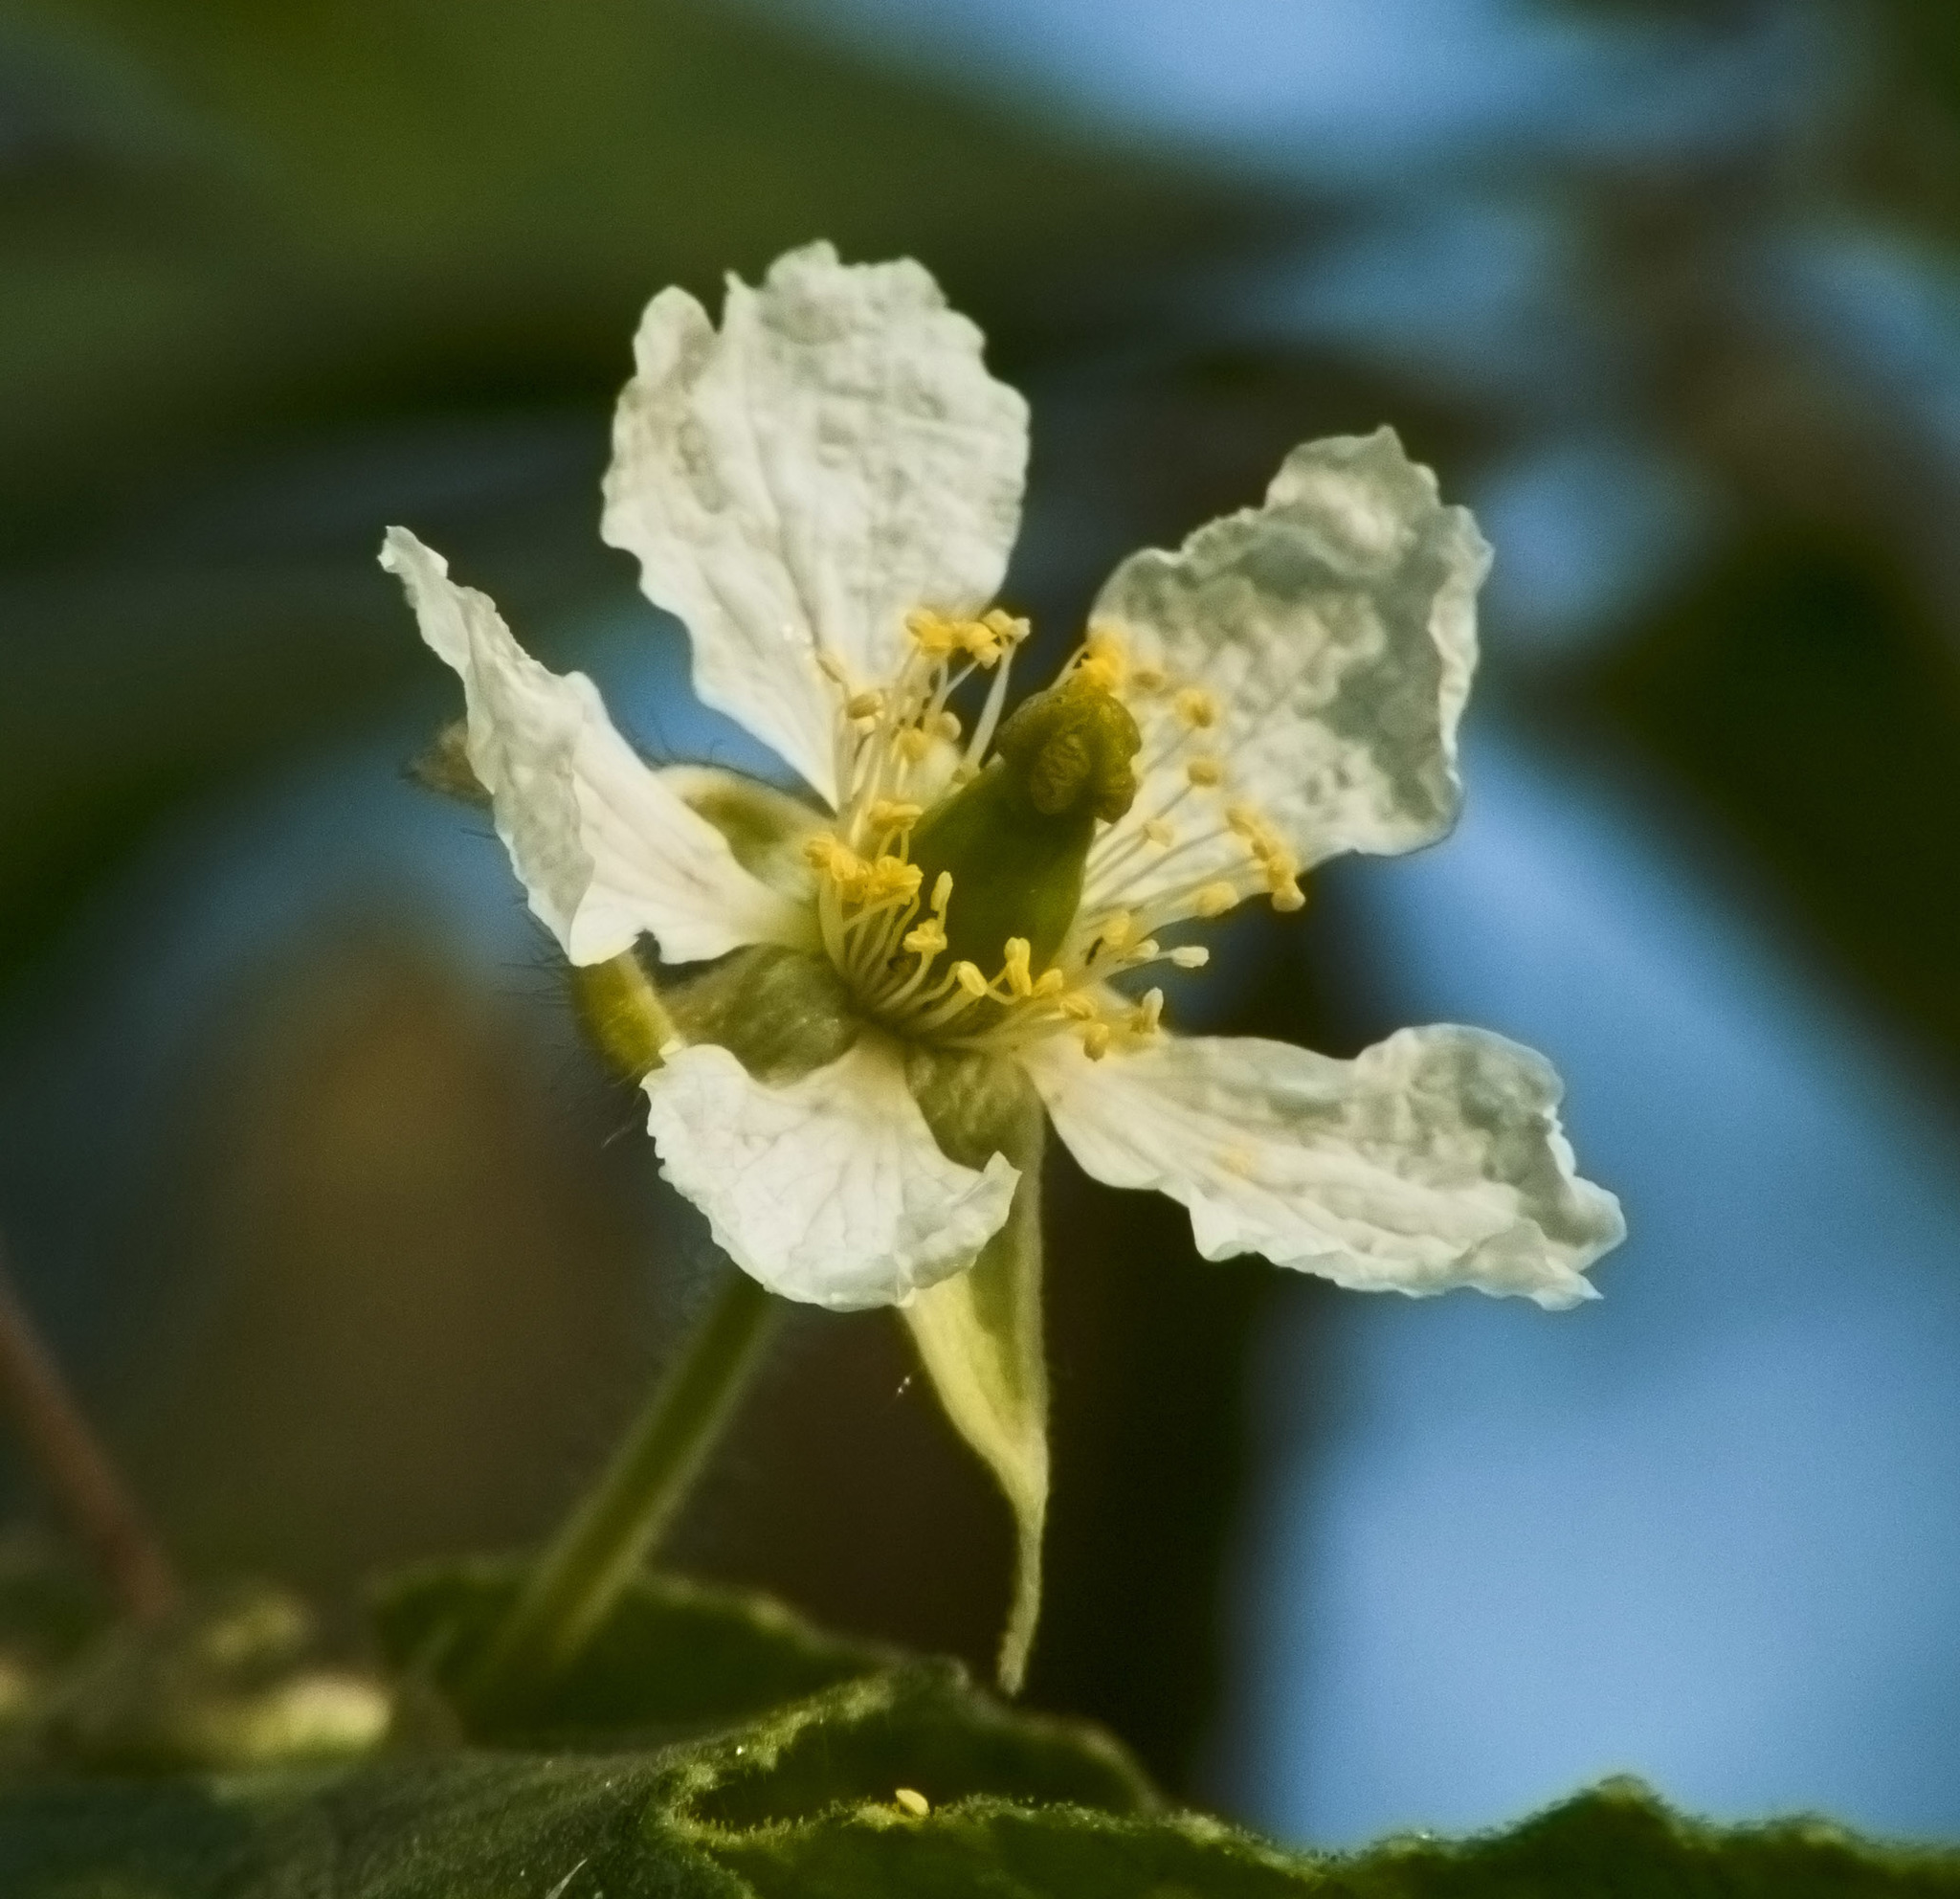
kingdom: Plantae
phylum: Tracheophyta
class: Magnoliopsida
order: Malvales
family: Muntingiaceae
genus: Muntingia
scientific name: Muntingia calabura
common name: Strawberrytree
